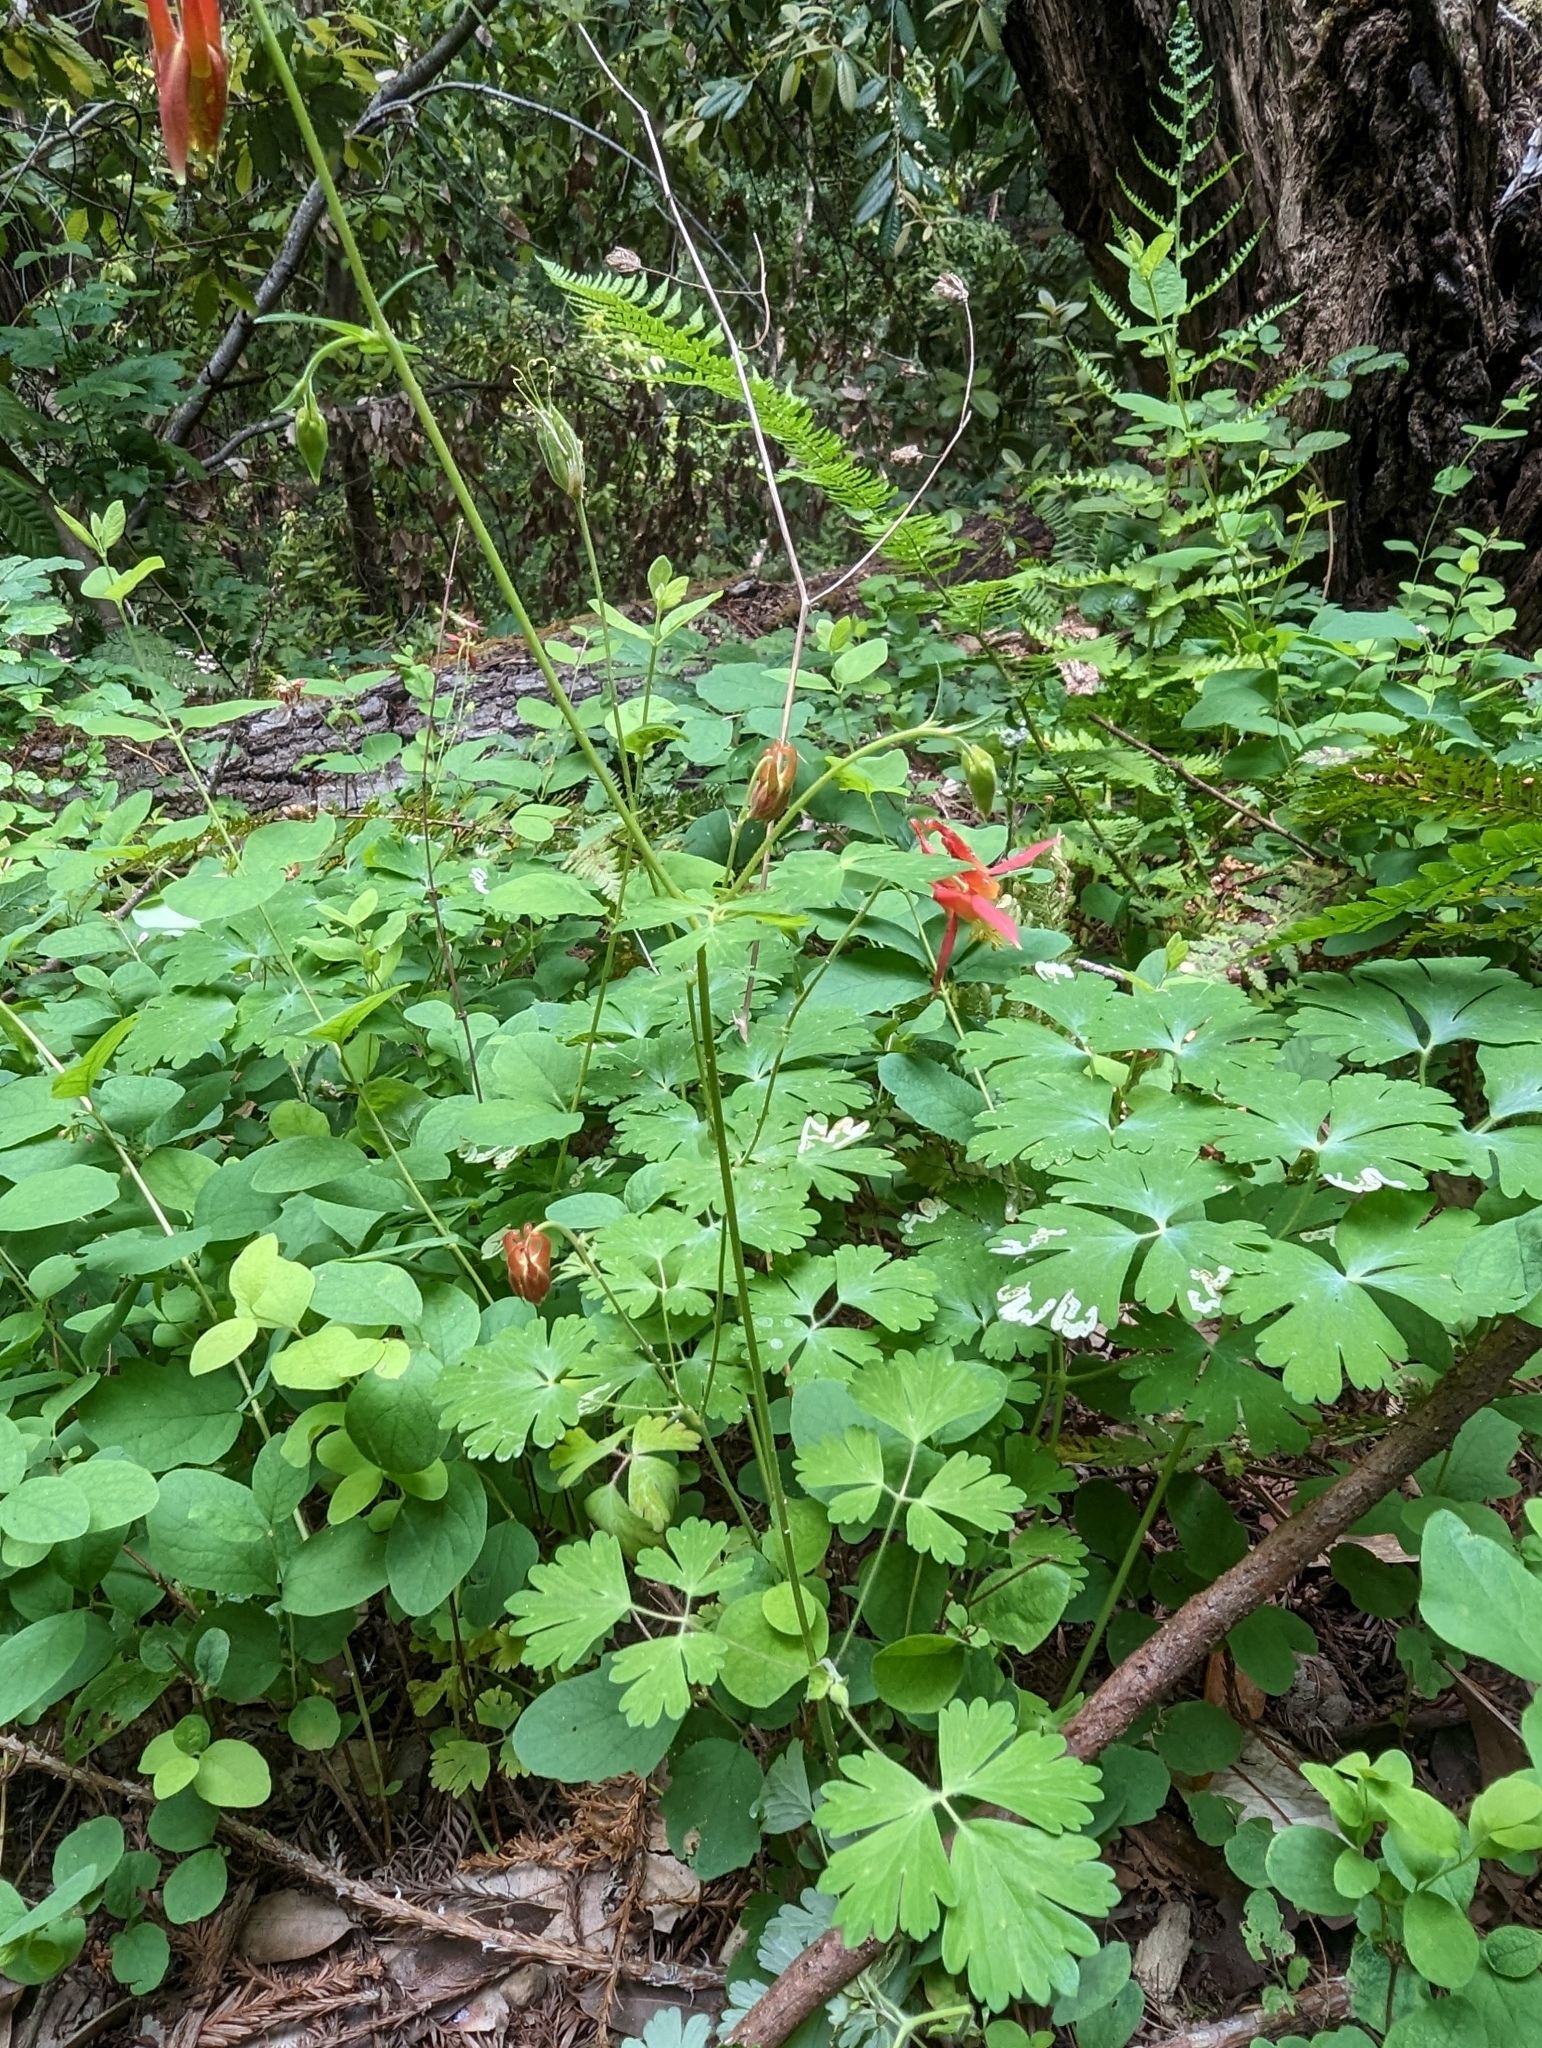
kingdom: Plantae
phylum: Tracheophyta
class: Magnoliopsida
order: Ranunculales
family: Ranunculaceae
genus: Aquilegia
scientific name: Aquilegia formosa
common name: Sitka columbine
